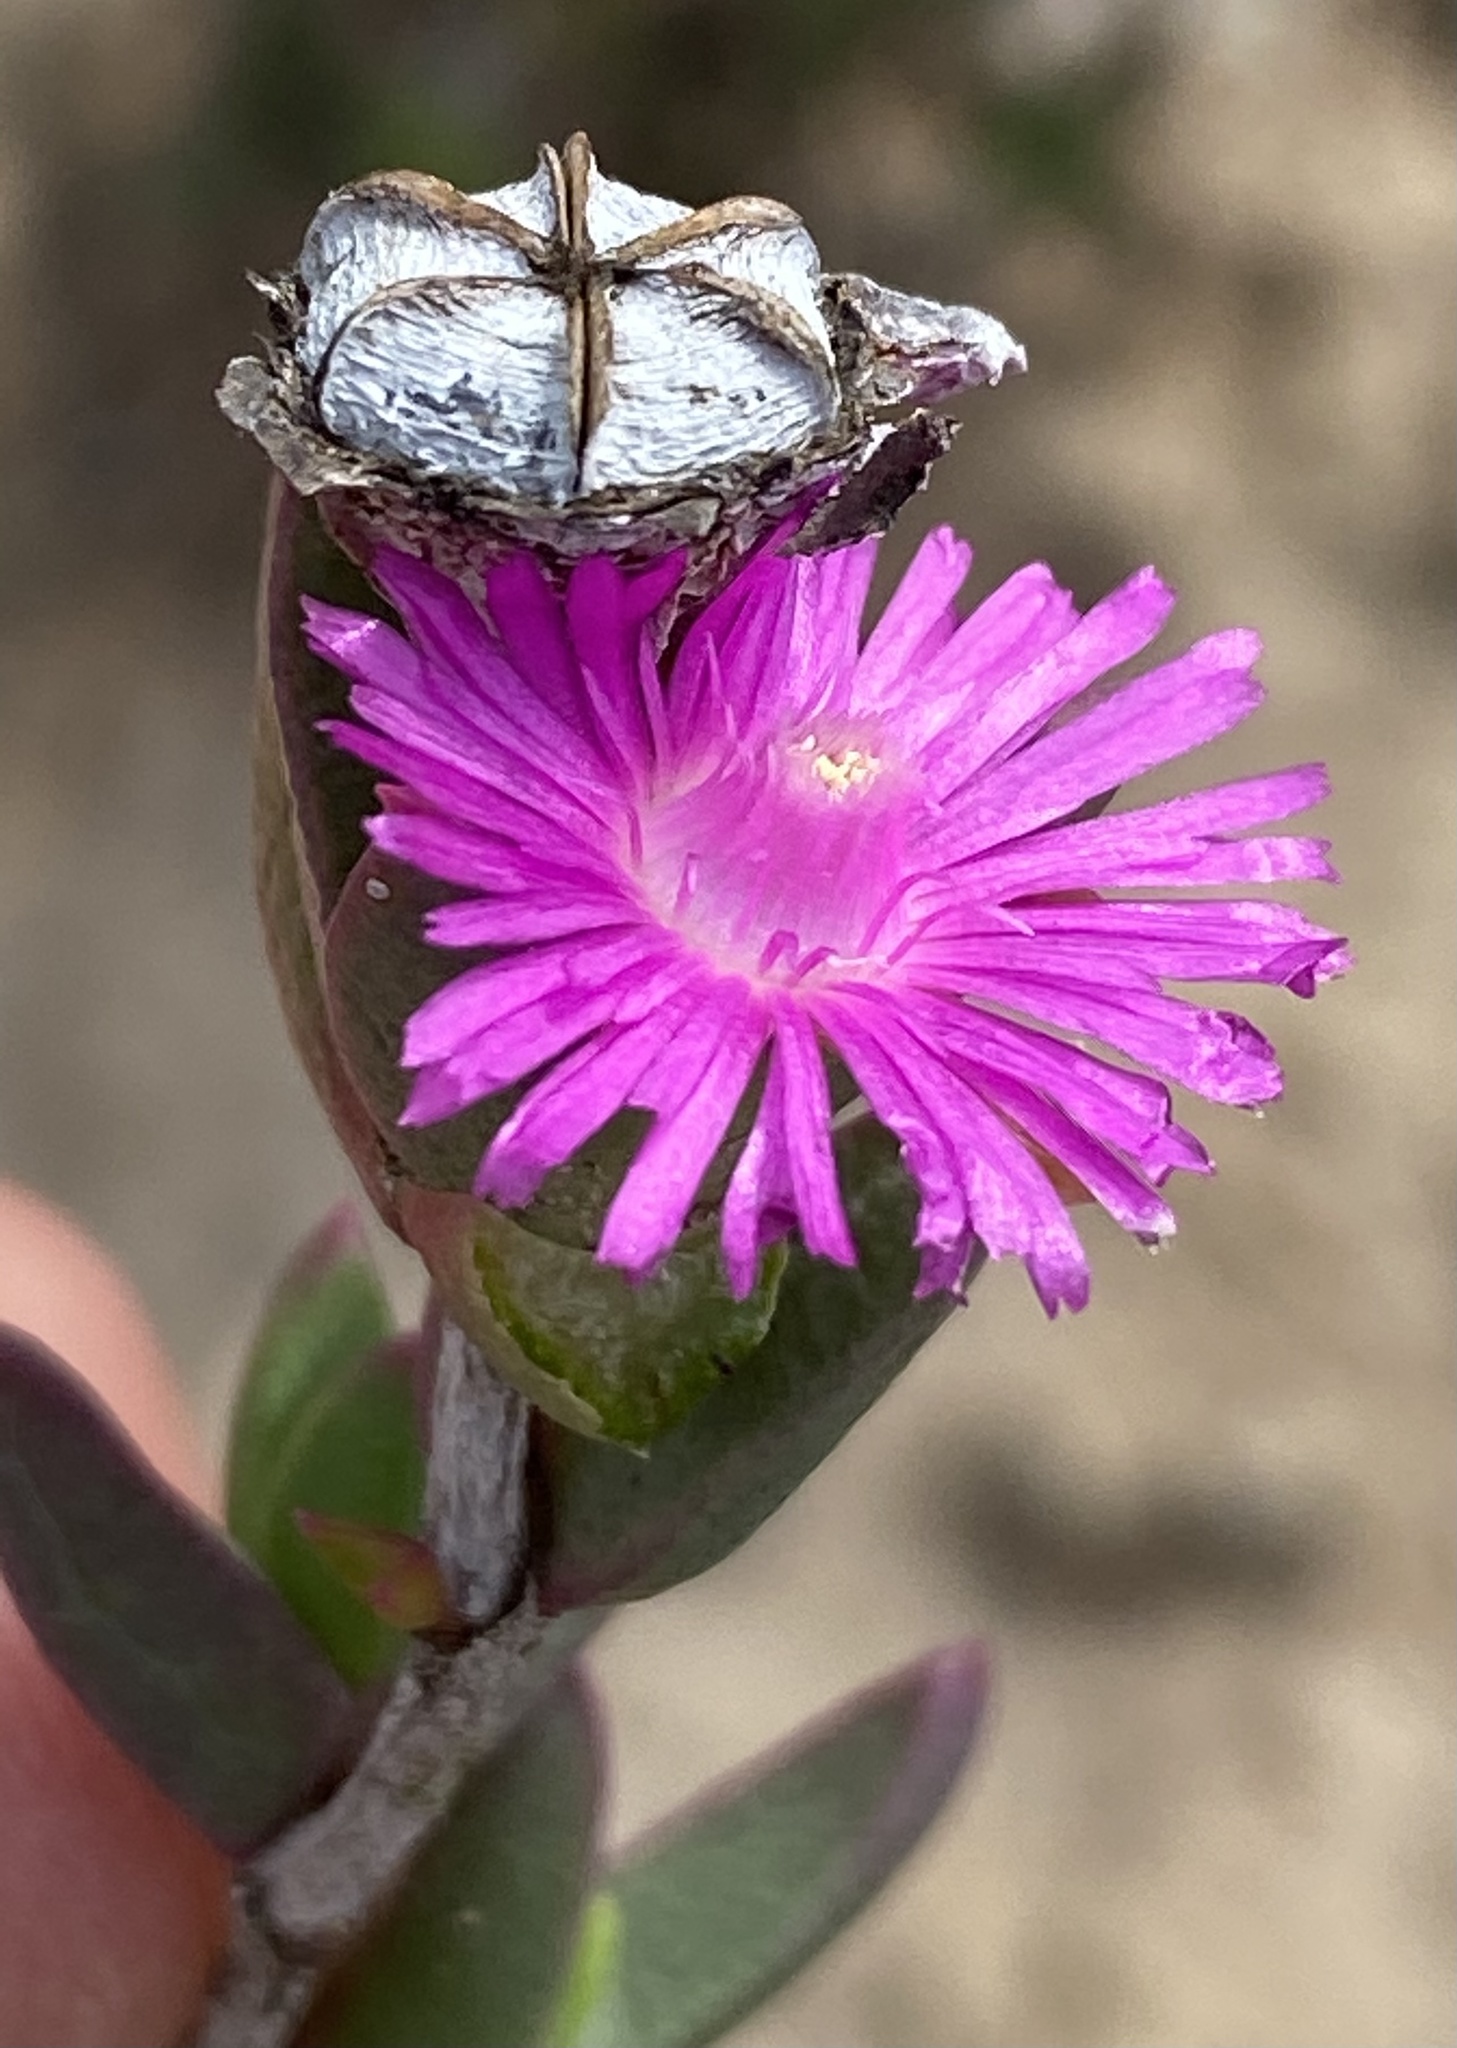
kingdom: Plantae
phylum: Tracheophyta
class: Magnoliopsida
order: Caryophyllales
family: Aizoaceae
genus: Esterhuysenia
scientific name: Esterhuysenia knysnana
